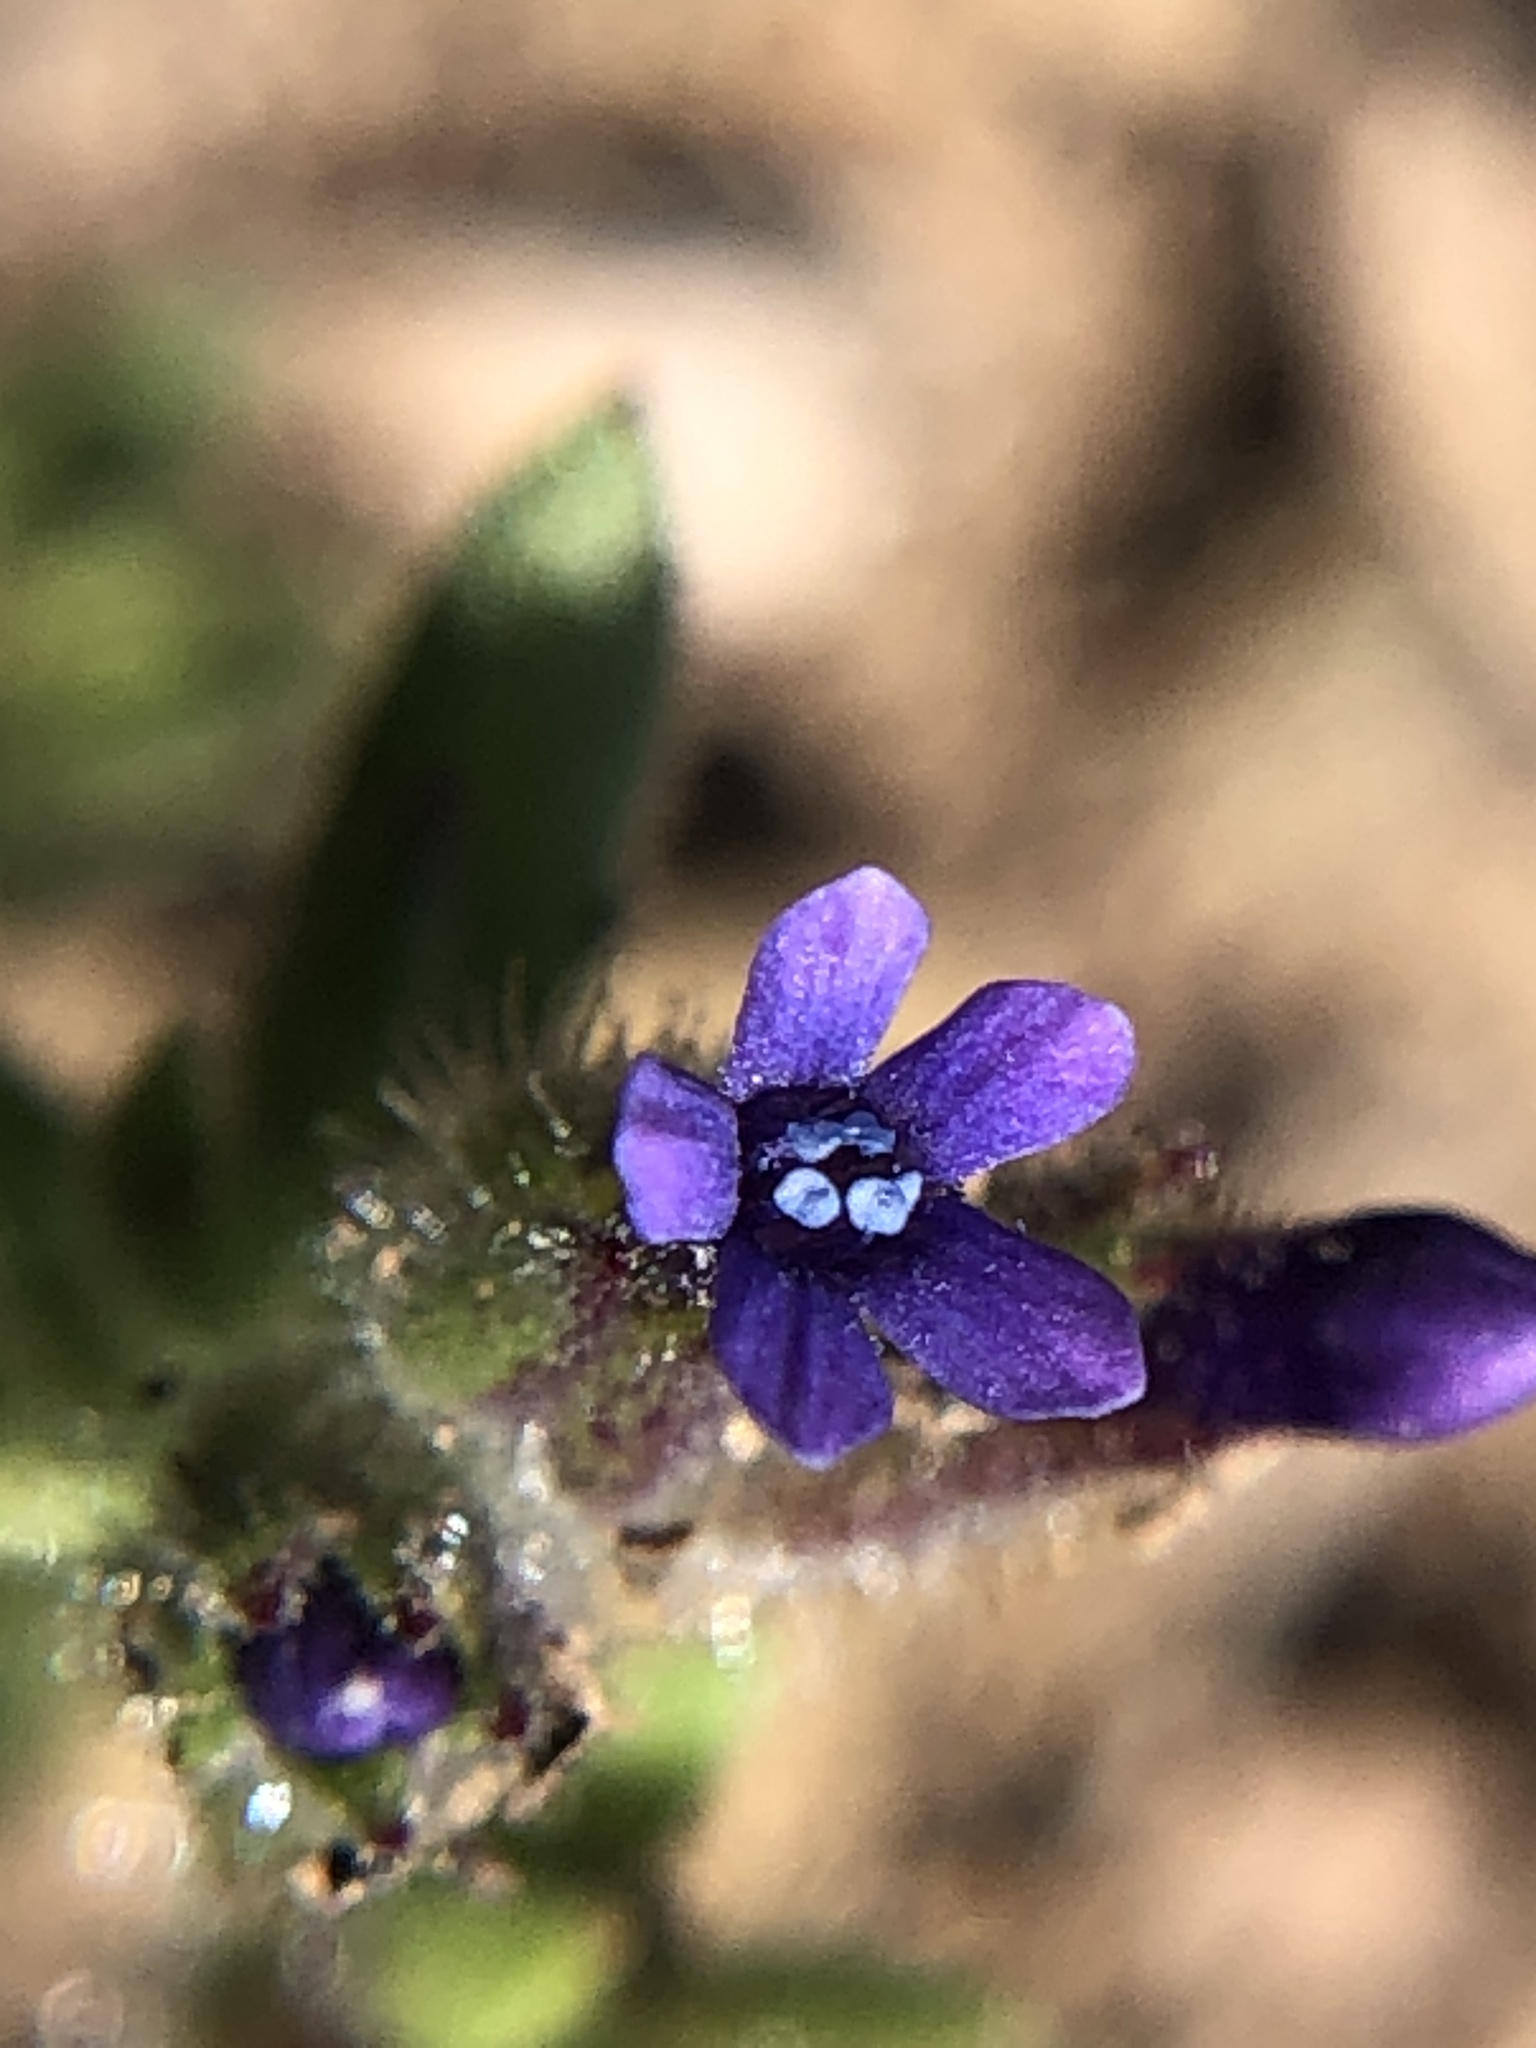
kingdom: Plantae
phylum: Tracheophyta
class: Magnoliopsida
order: Ericales
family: Polemoniaceae
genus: Allophyllum
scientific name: Allophyllum gilioides
